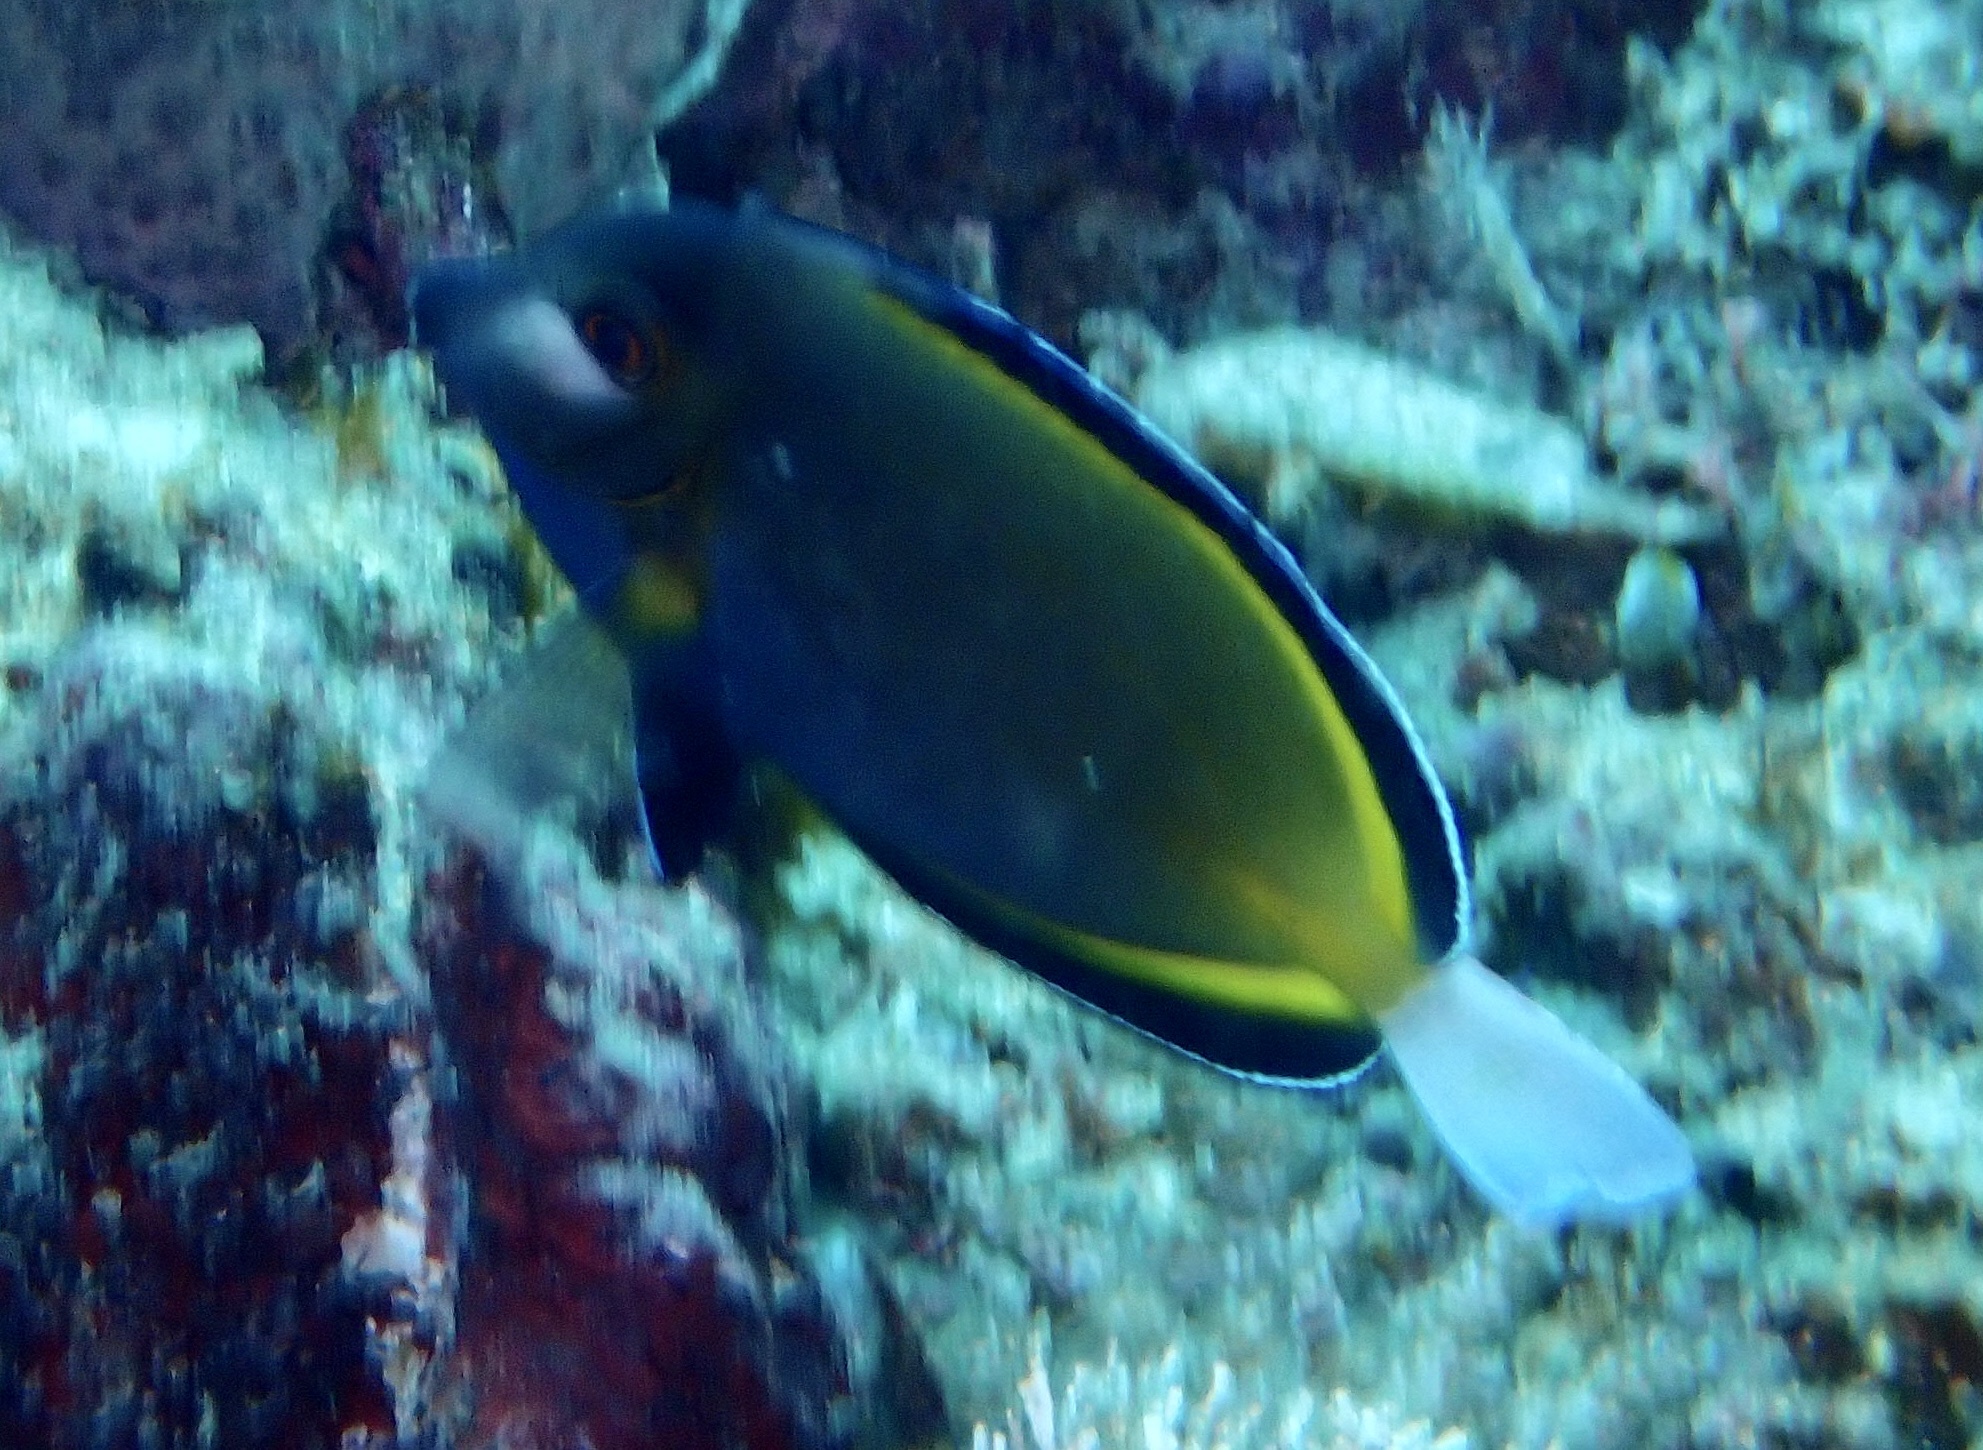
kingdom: Animalia
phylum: Chordata
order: Perciformes
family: Acanthuridae
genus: Acanthurus
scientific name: Acanthurus japonicus
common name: Japanese surgeonfish
